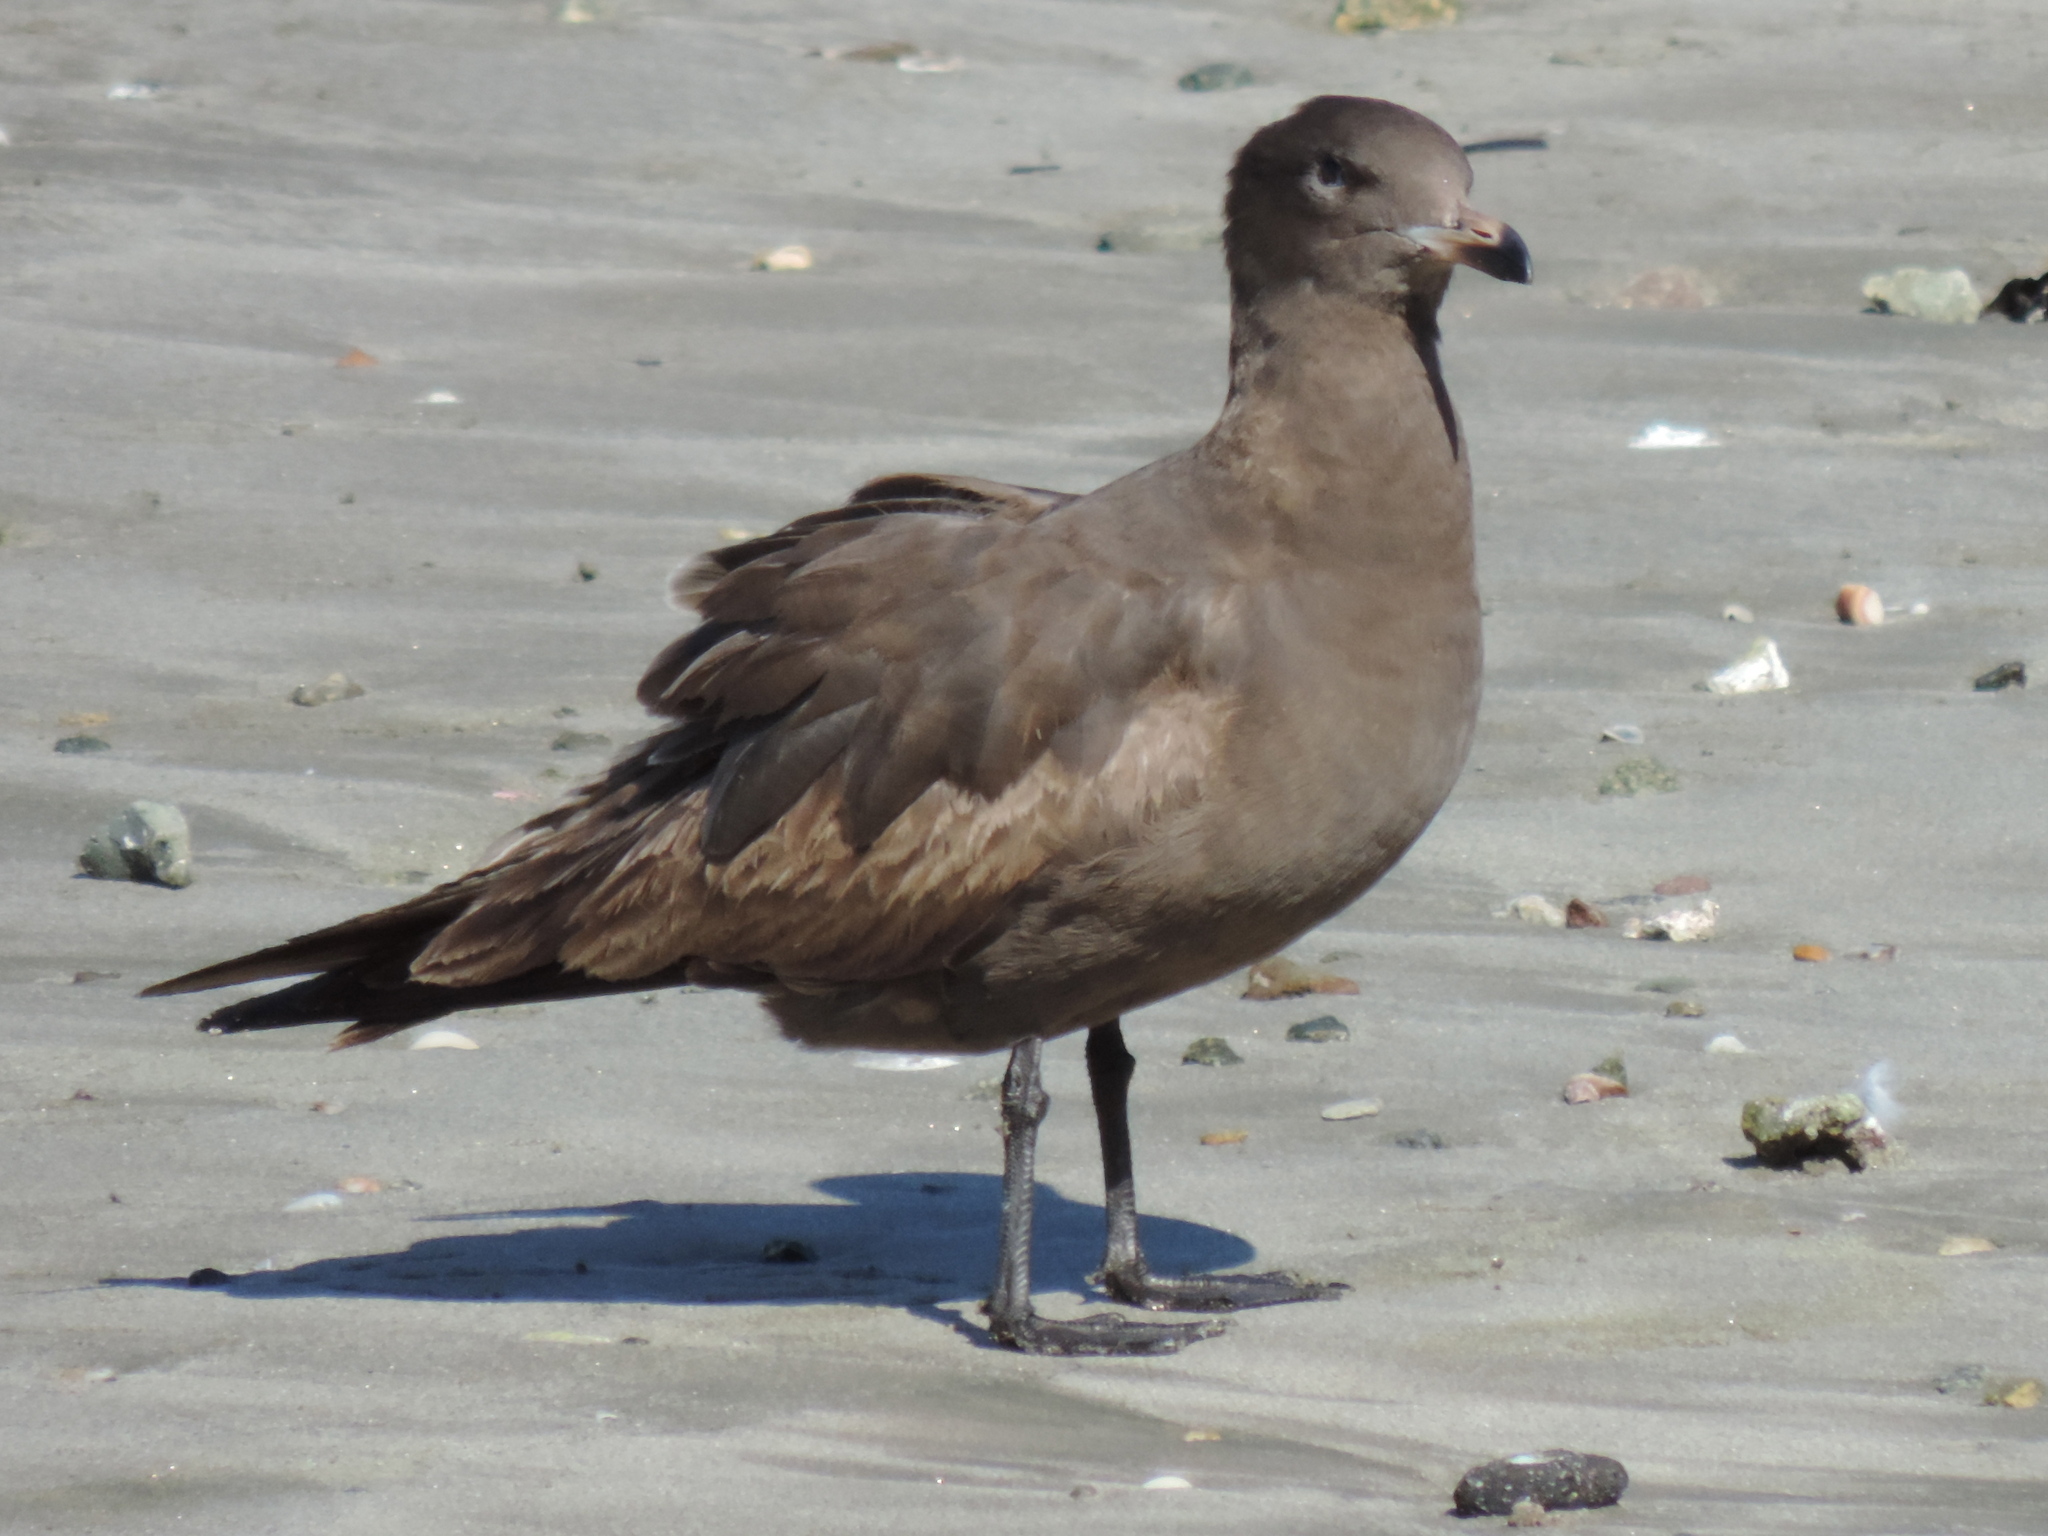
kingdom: Animalia
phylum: Chordata
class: Aves
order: Charadriiformes
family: Laridae
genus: Larus
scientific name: Larus heermanni
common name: Heermann's gull
